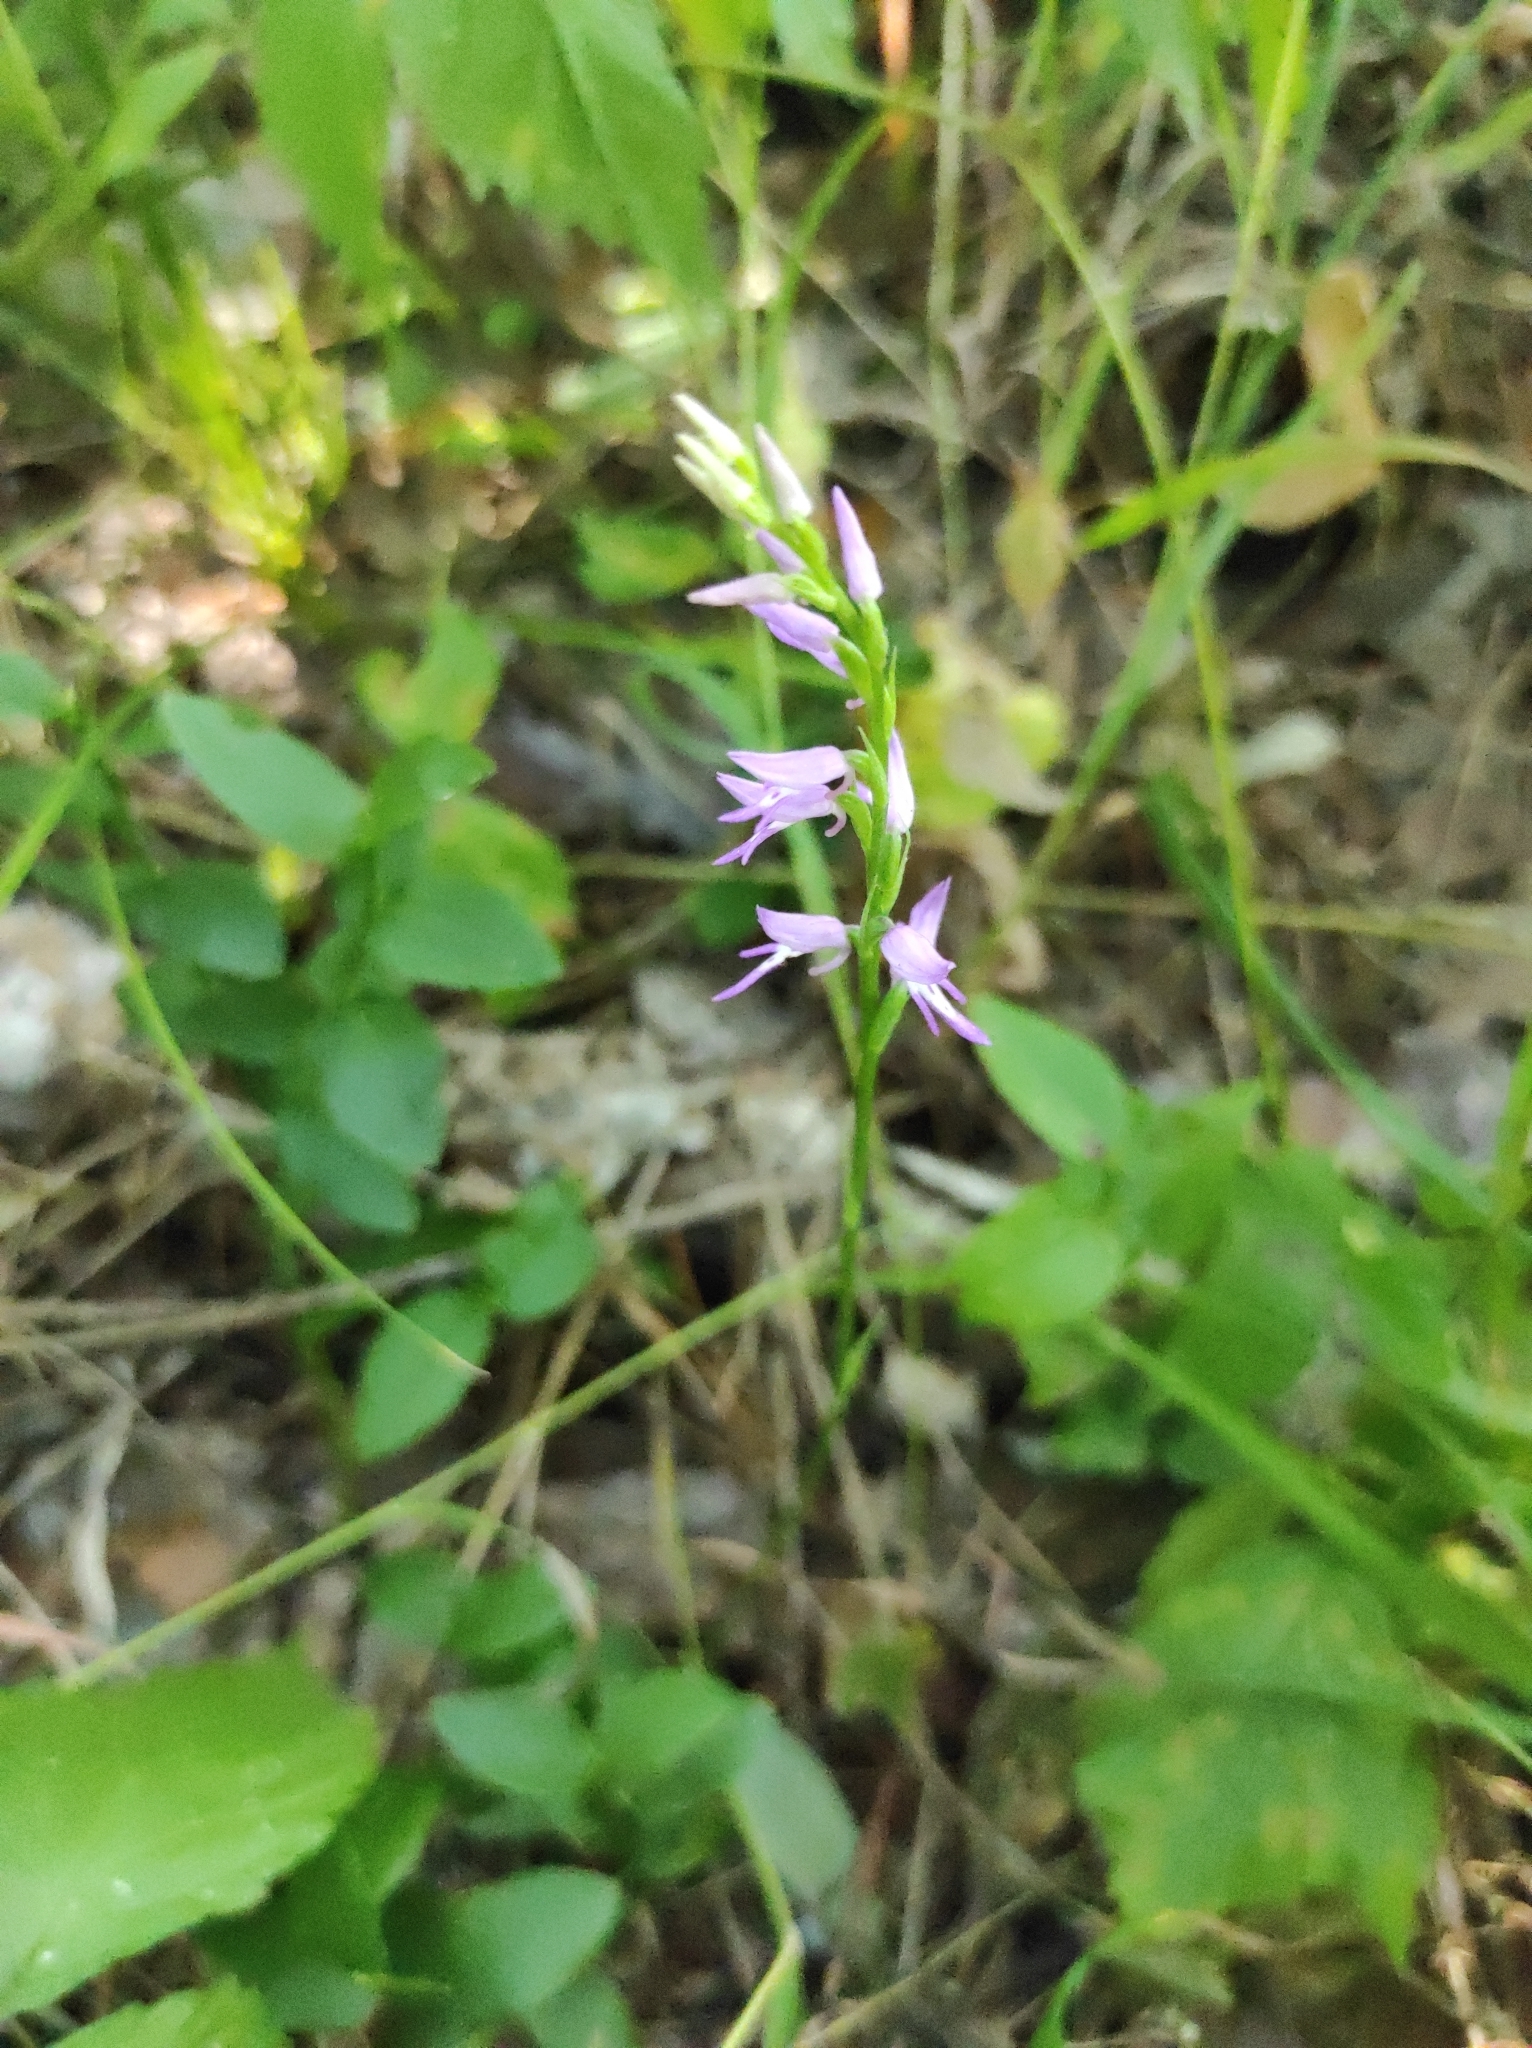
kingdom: Plantae
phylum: Tracheophyta
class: Liliopsida
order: Asparagales
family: Orchidaceae
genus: Hemipilia
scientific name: Hemipilia cucullata
